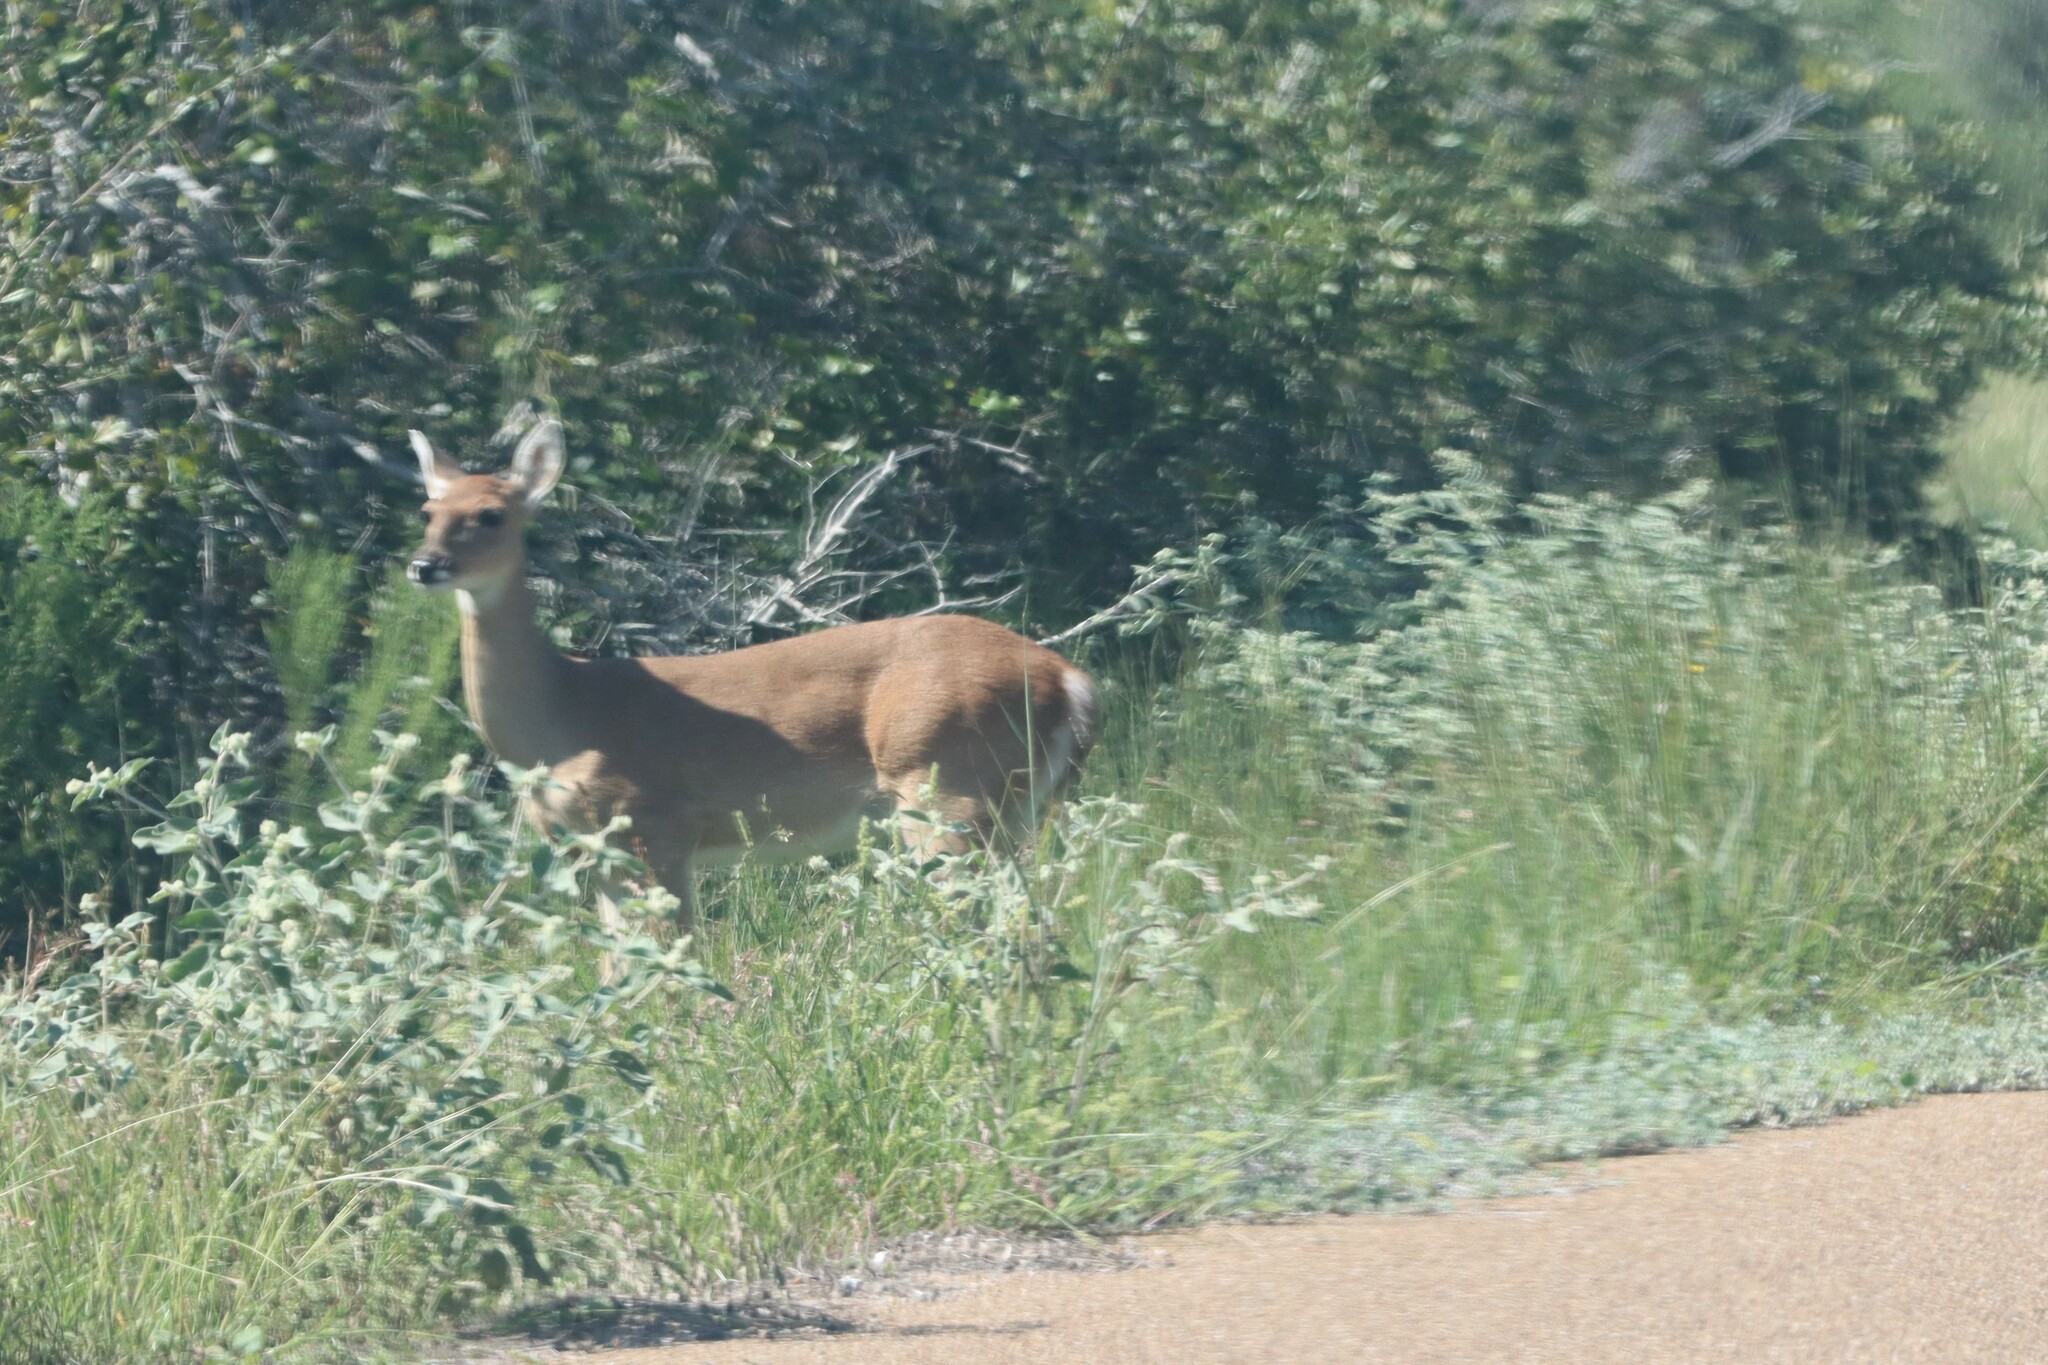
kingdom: Animalia
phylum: Chordata
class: Mammalia
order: Artiodactyla
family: Cervidae
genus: Odocoileus
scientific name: Odocoileus virginianus
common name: White-tailed deer
